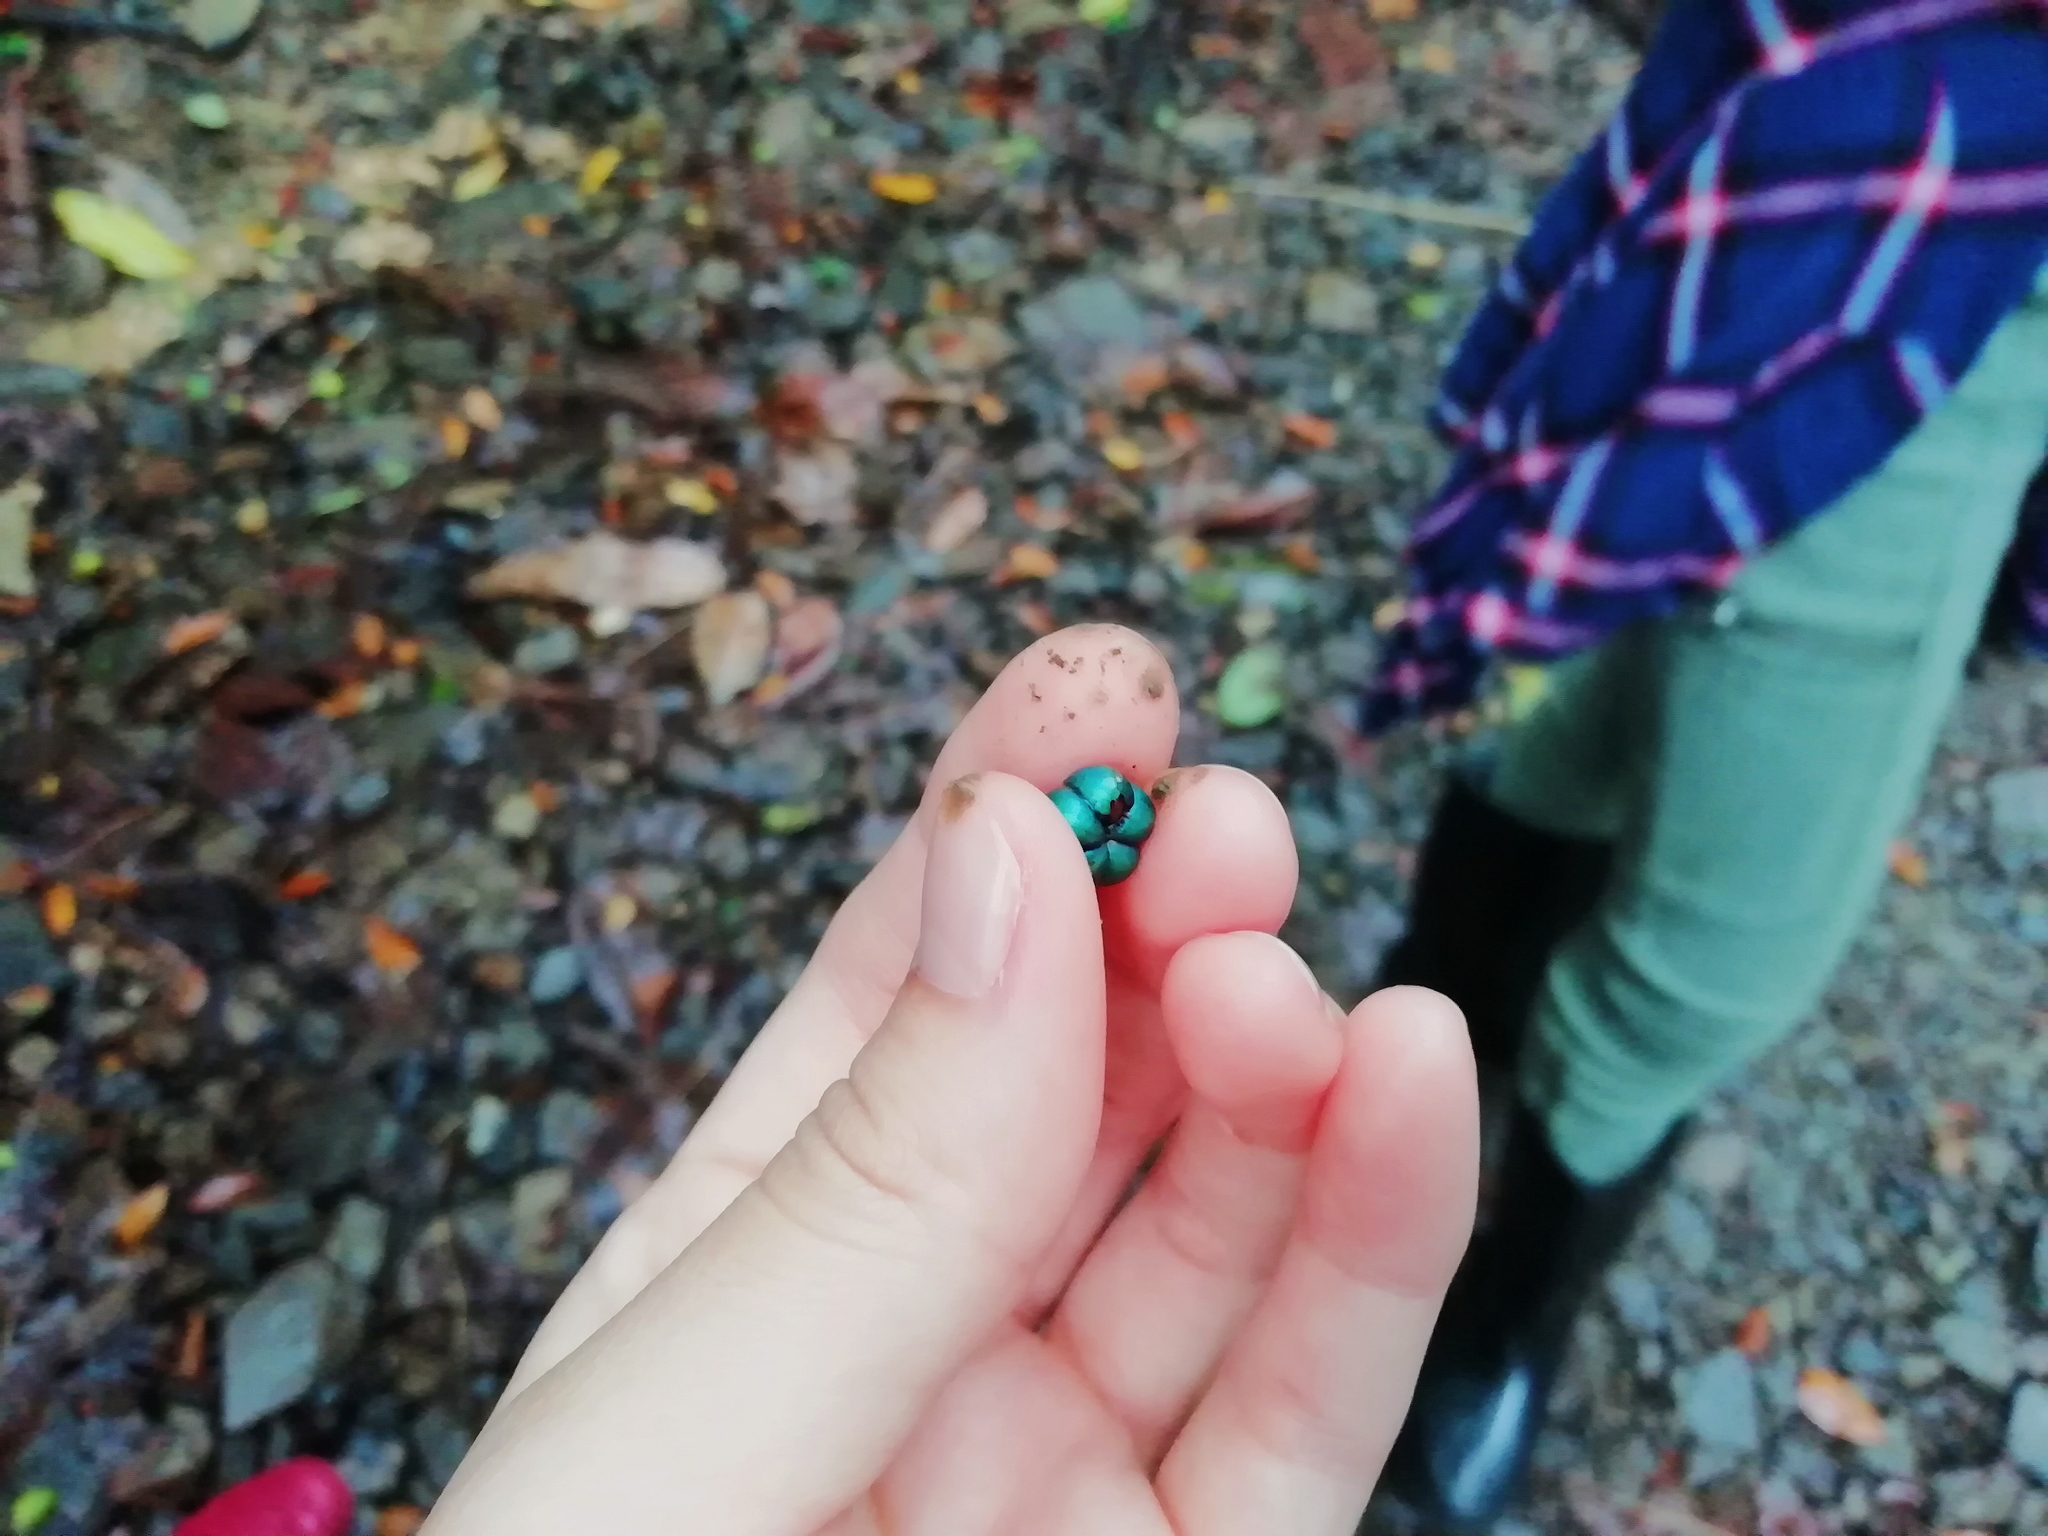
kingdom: Plantae
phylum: Tracheophyta
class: Magnoliopsida
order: Malpighiales
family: Phyllanthaceae
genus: Margaritaria
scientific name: Margaritaria nobilis
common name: Goose berry
